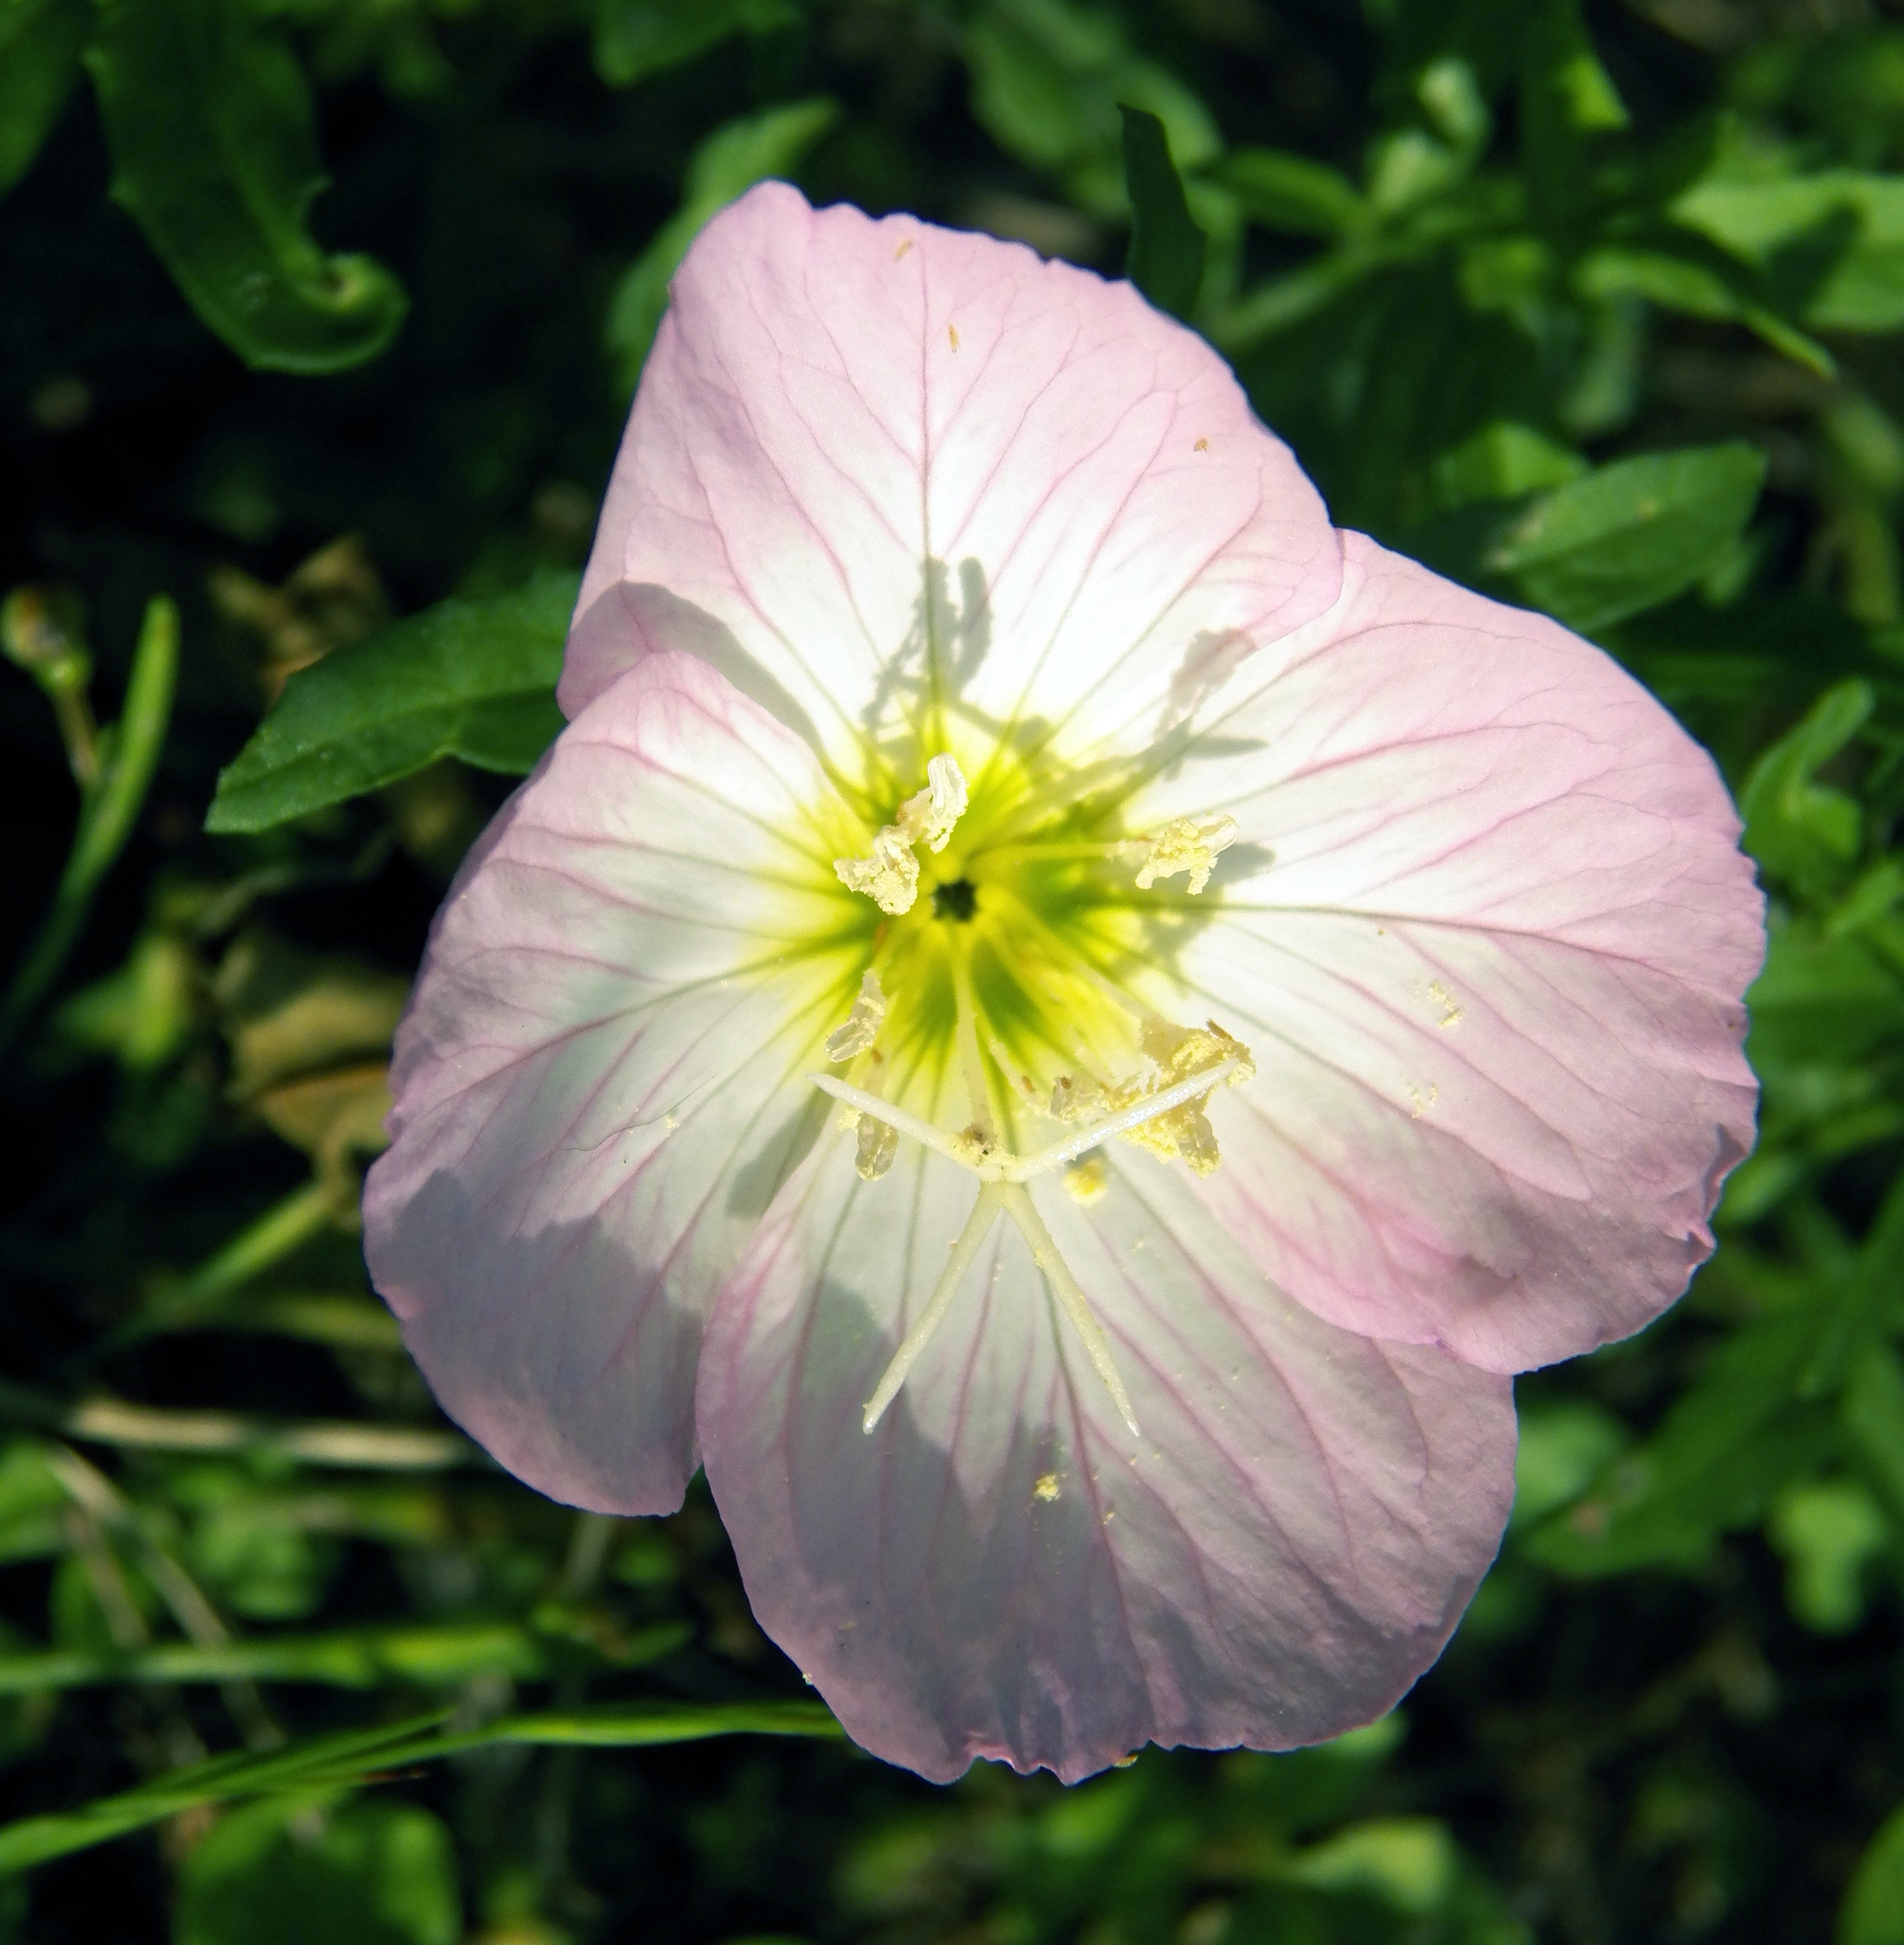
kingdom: Plantae
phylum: Tracheophyta
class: Magnoliopsida
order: Myrtales
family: Onagraceae
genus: Oenothera
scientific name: Oenothera speciosa
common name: White evening-primrose
